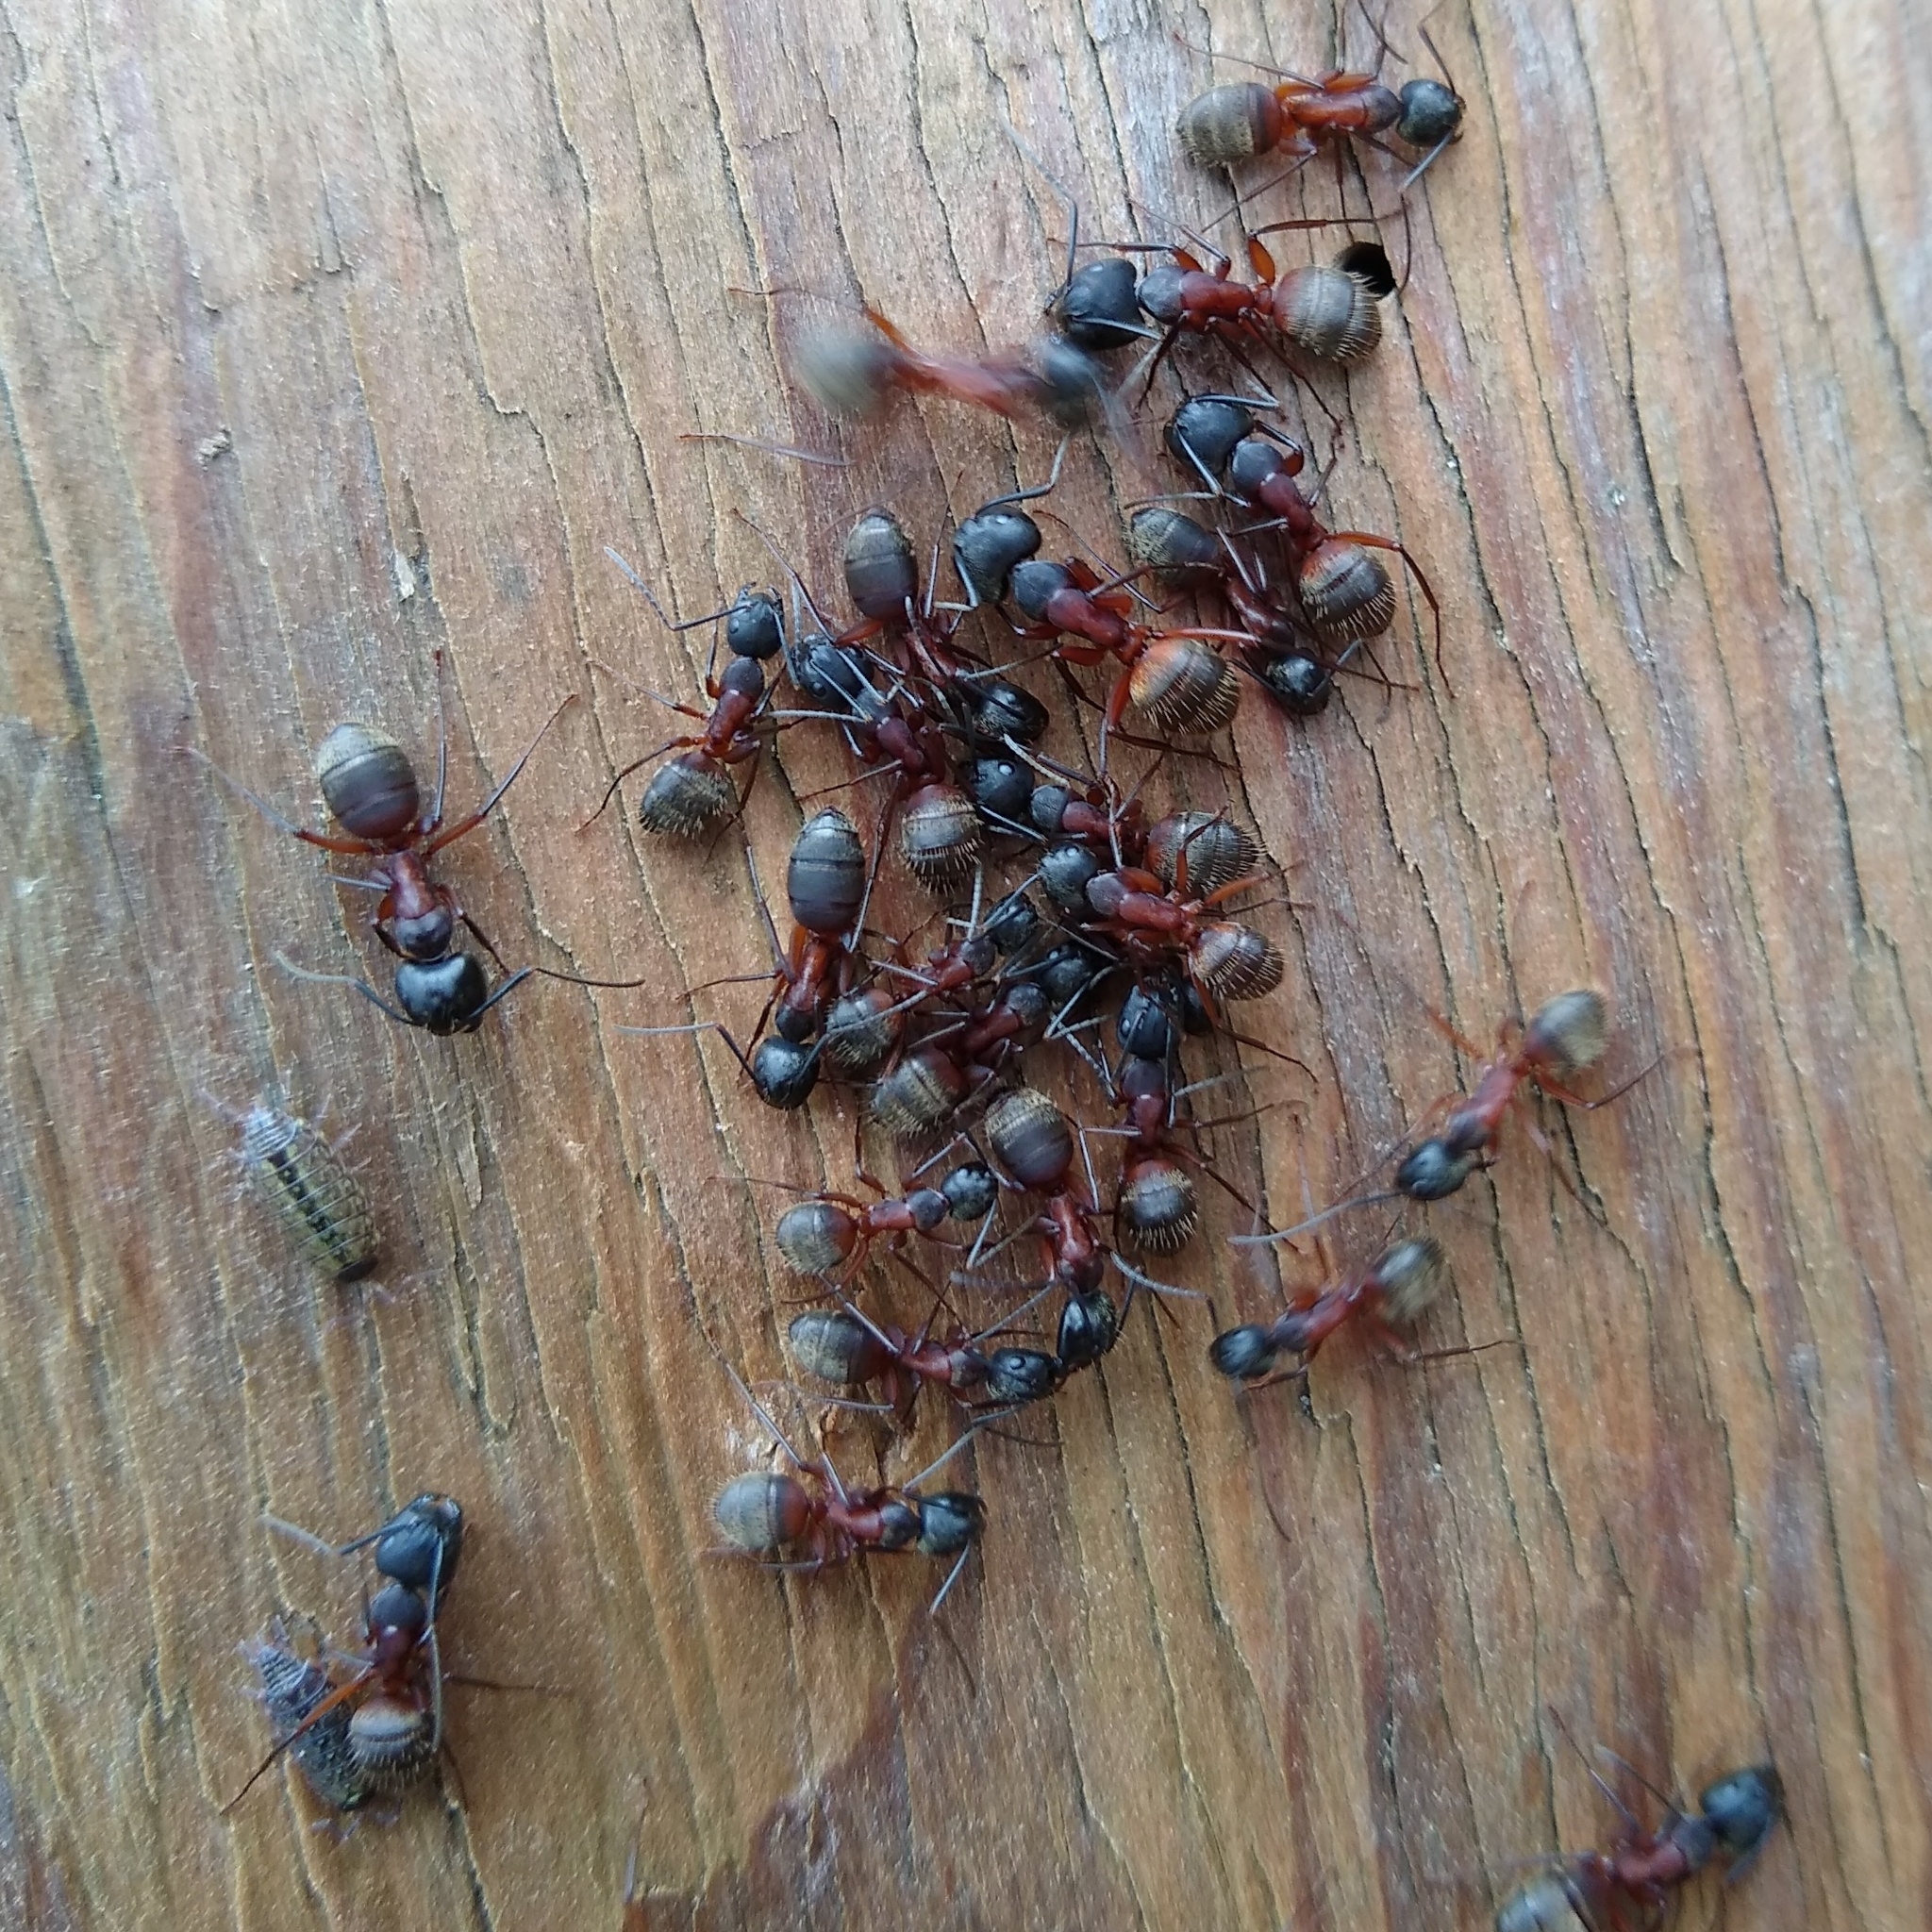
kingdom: Animalia
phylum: Arthropoda
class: Insecta
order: Hymenoptera
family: Formicidae
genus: Camponotus
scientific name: Camponotus chromaiodes
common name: Red carpenter ant
